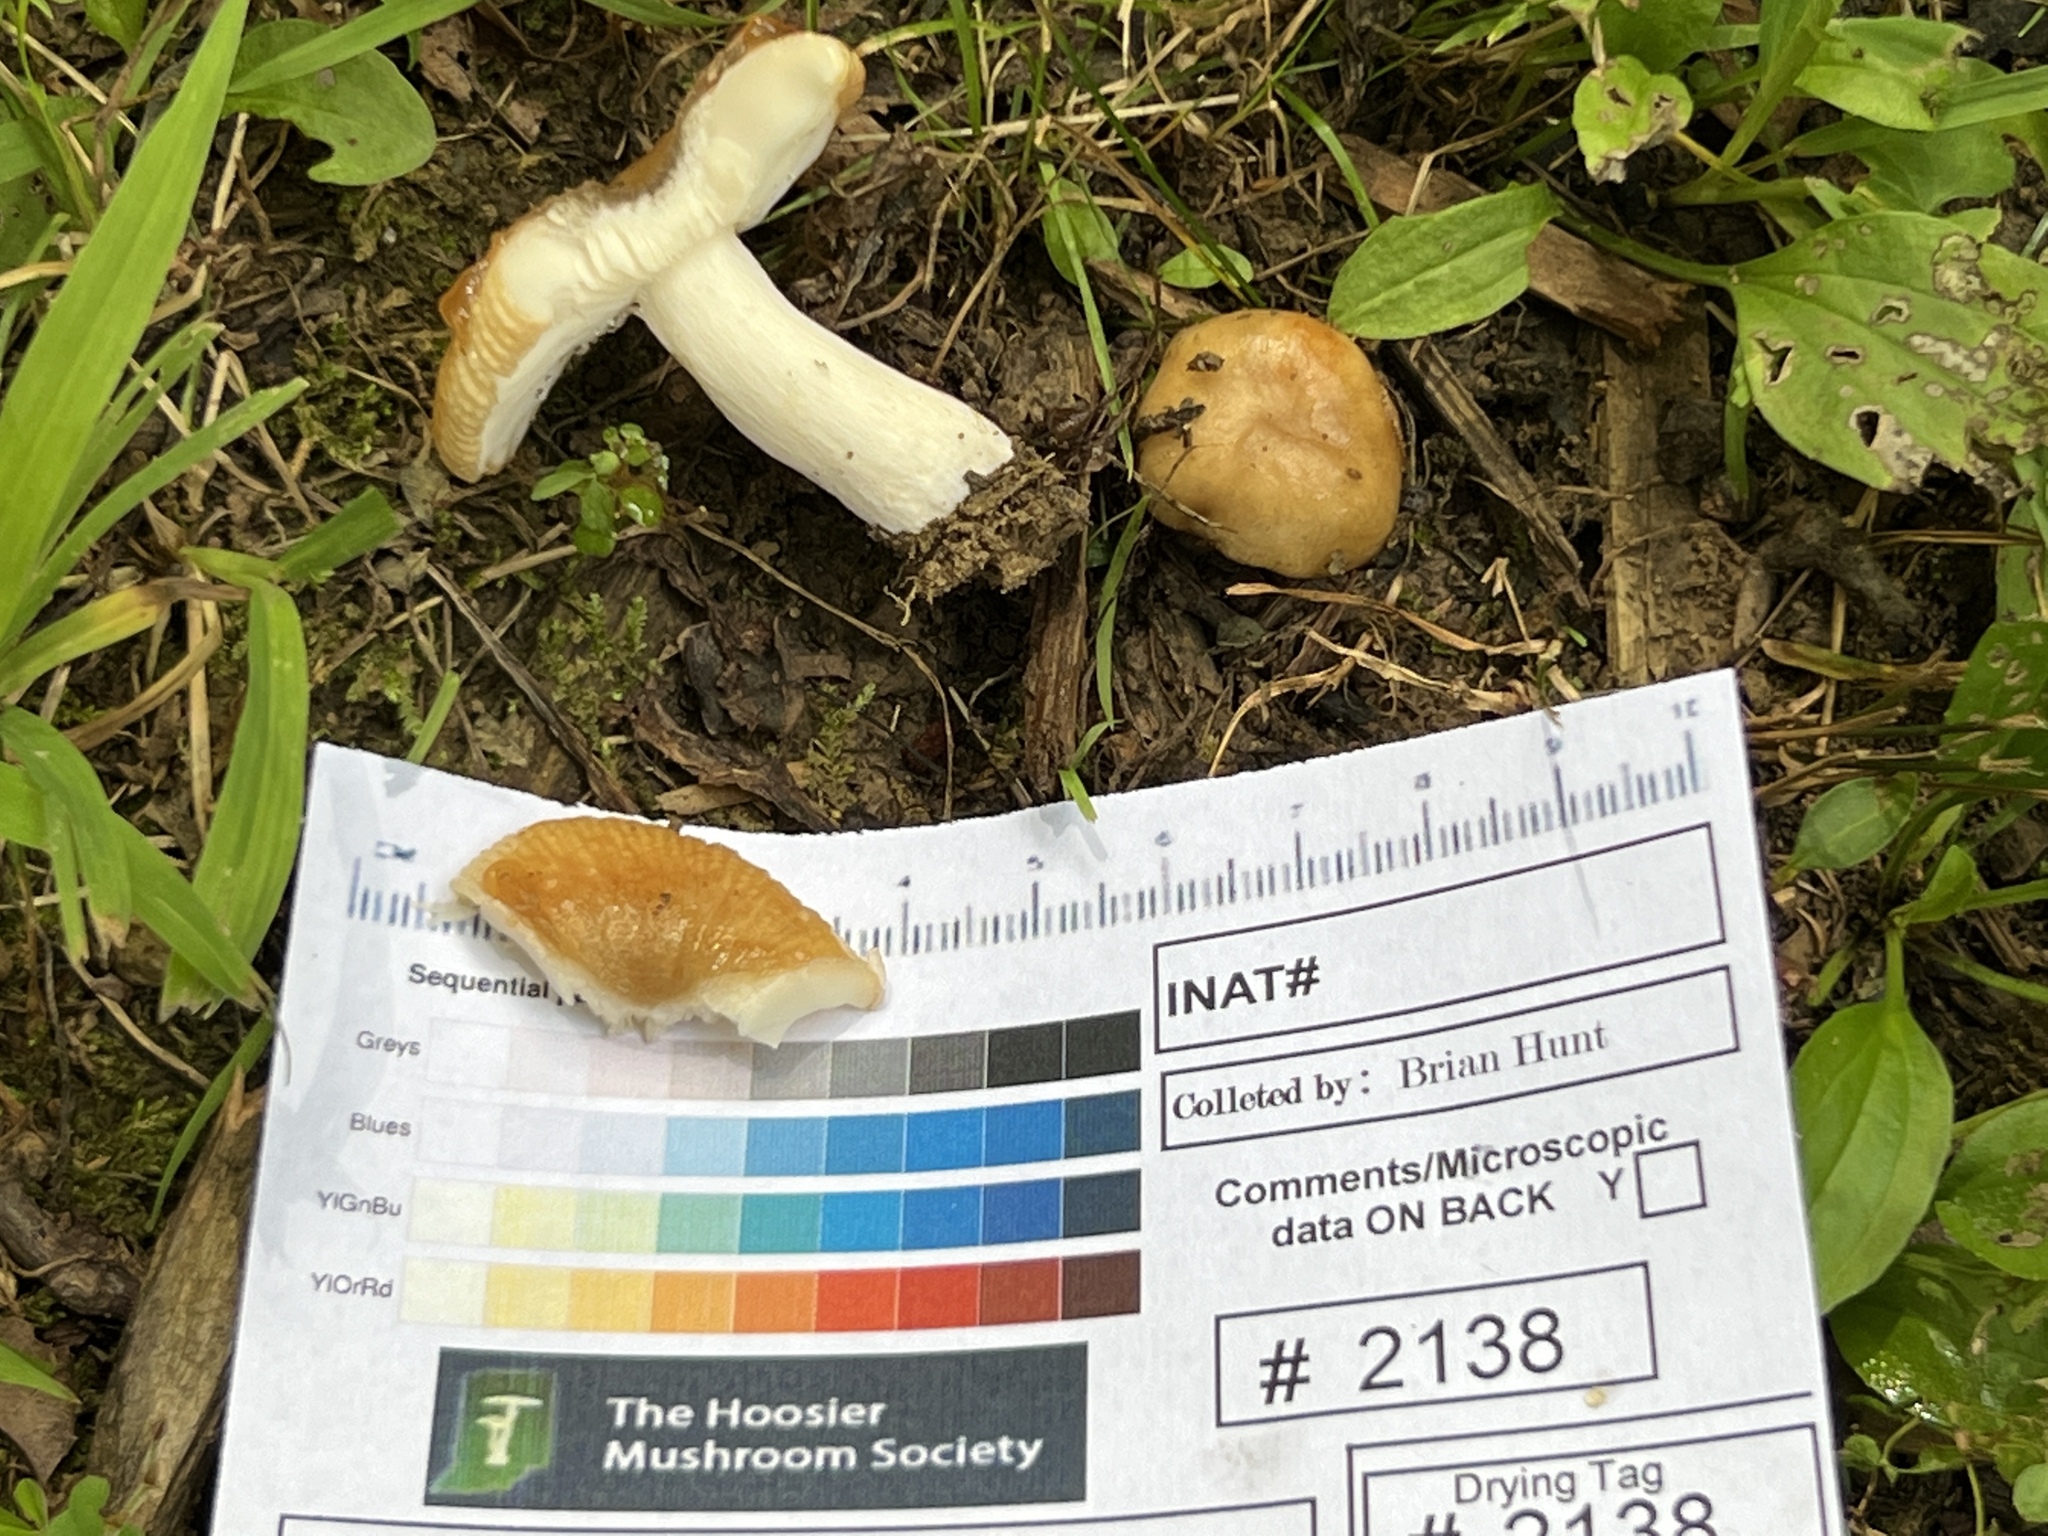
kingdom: Fungi
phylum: Basidiomycota
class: Agaricomycetes
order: Russulales
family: Russulaceae
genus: Russula
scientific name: Russula amerorecondita
